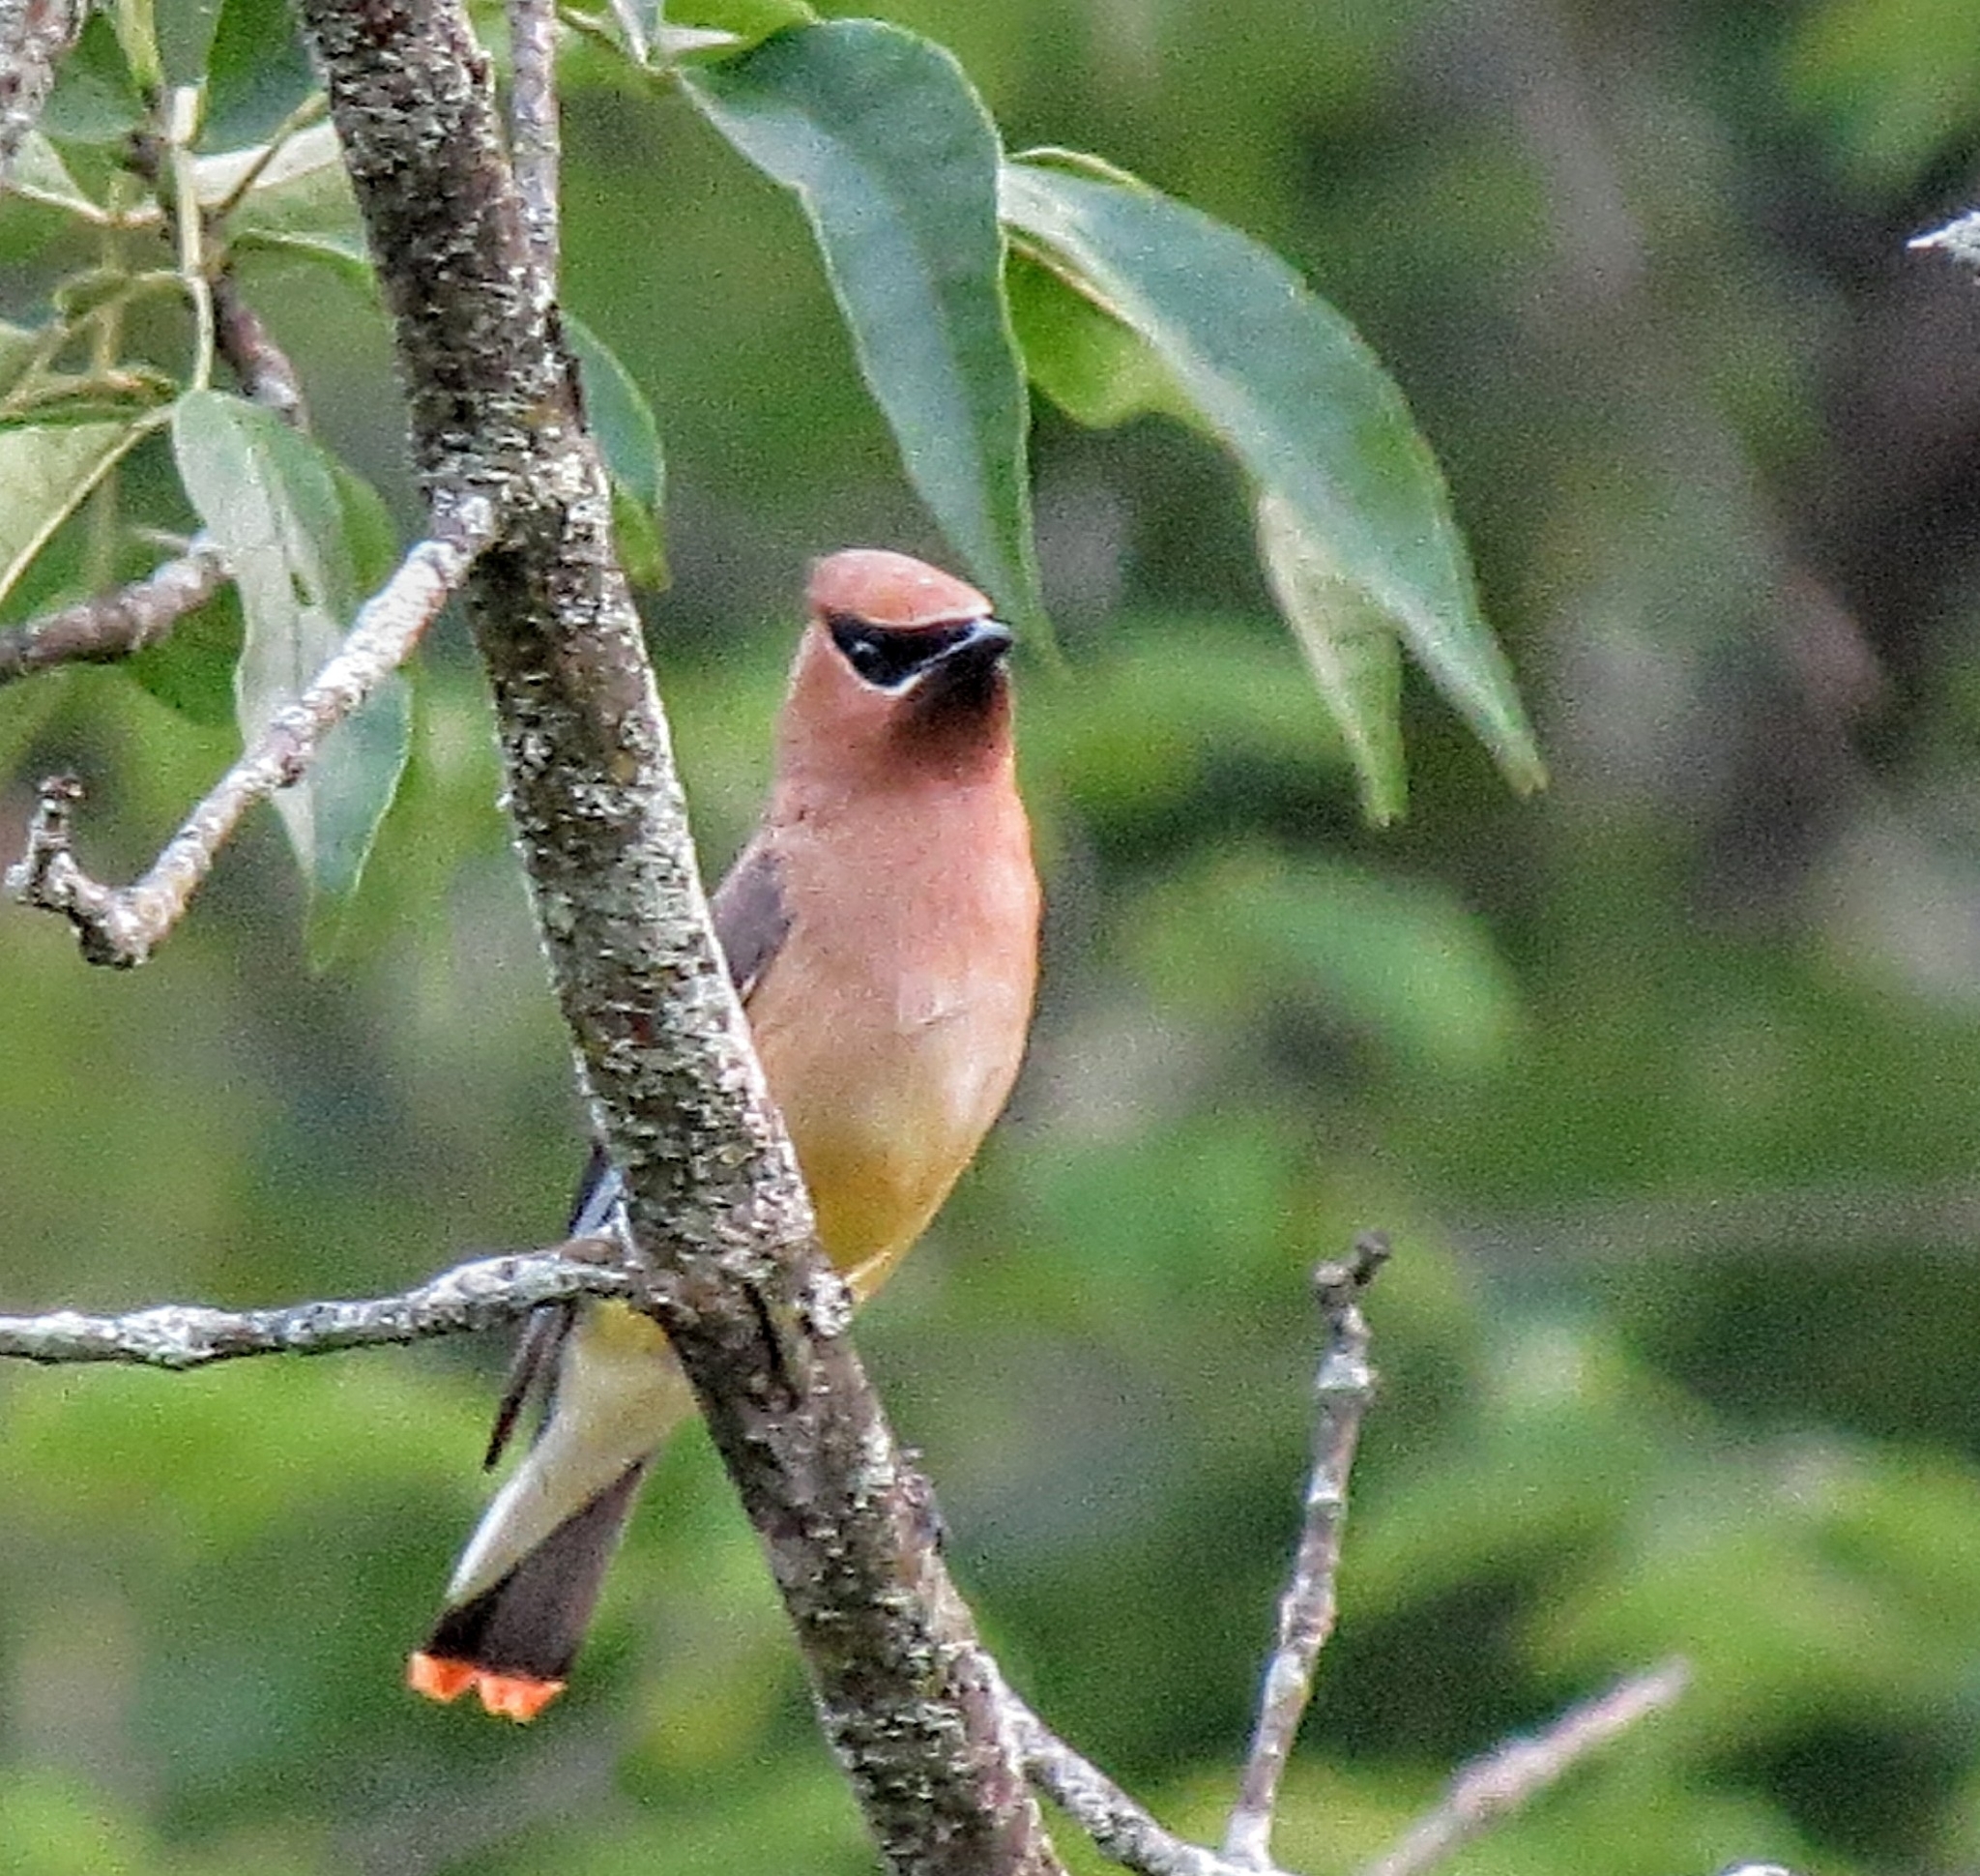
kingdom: Animalia
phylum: Chordata
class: Aves
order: Passeriformes
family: Bombycillidae
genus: Bombycilla
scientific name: Bombycilla cedrorum
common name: Cedar waxwing
